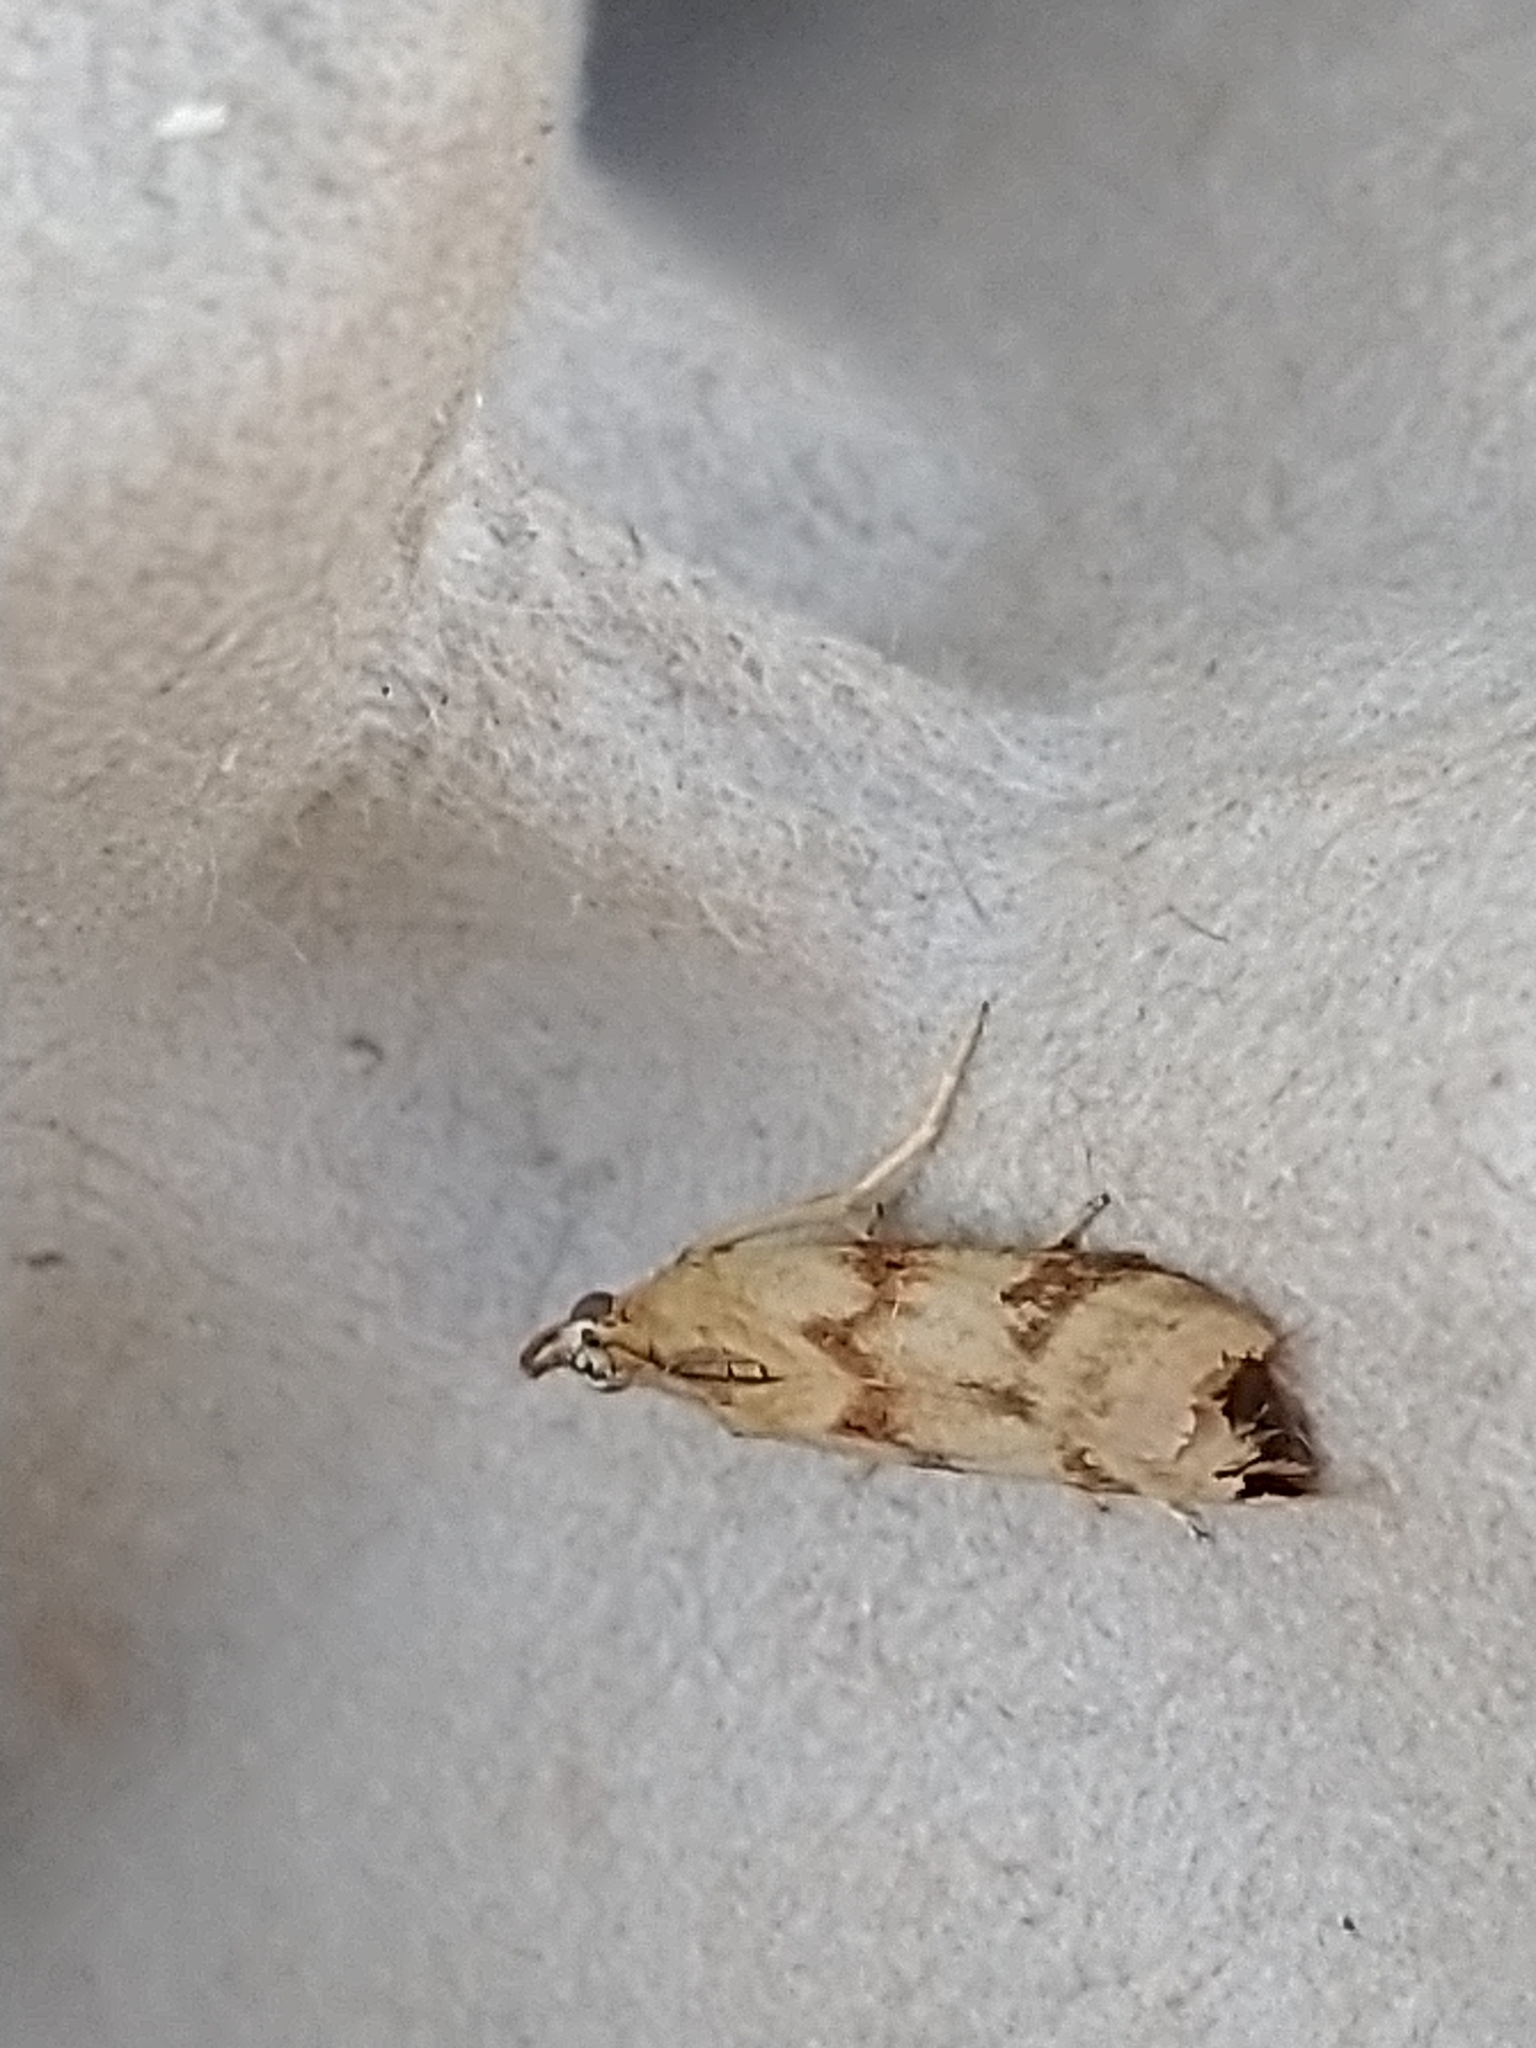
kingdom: Animalia
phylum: Arthropoda
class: Insecta
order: Lepidoptera
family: Pyralidae
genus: Homoeosoma
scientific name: Homoeosoma sinuella
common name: Twin-barred knot-horn
